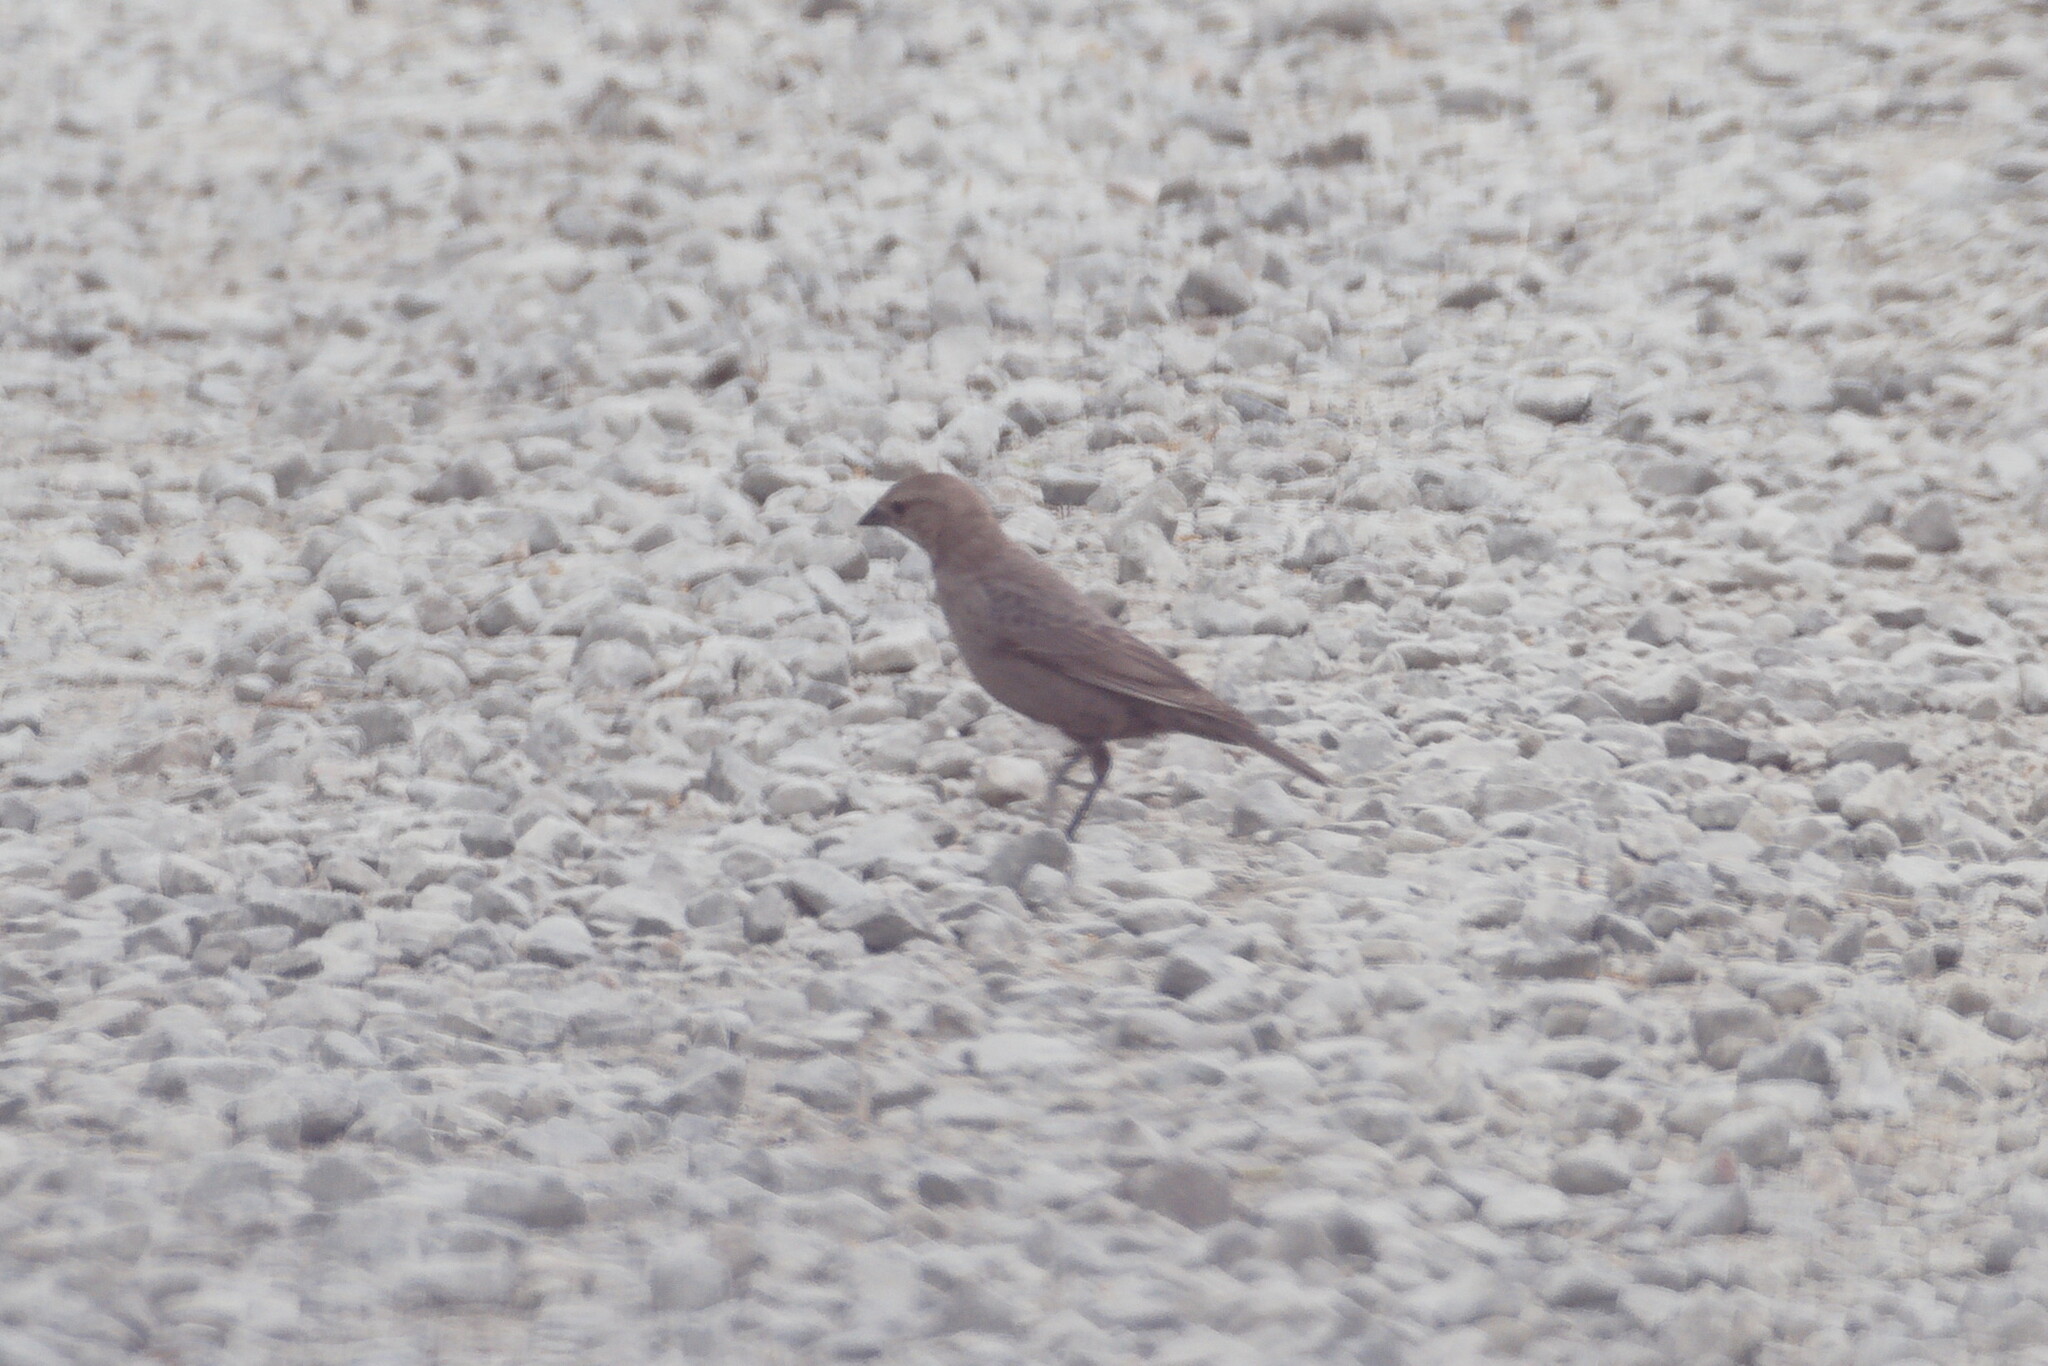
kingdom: Animalia
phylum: Chordata
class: Aves
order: Passeriformes
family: Icteridae
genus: Molothrus
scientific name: Molothrus ater
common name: Brown-headed cowbird
